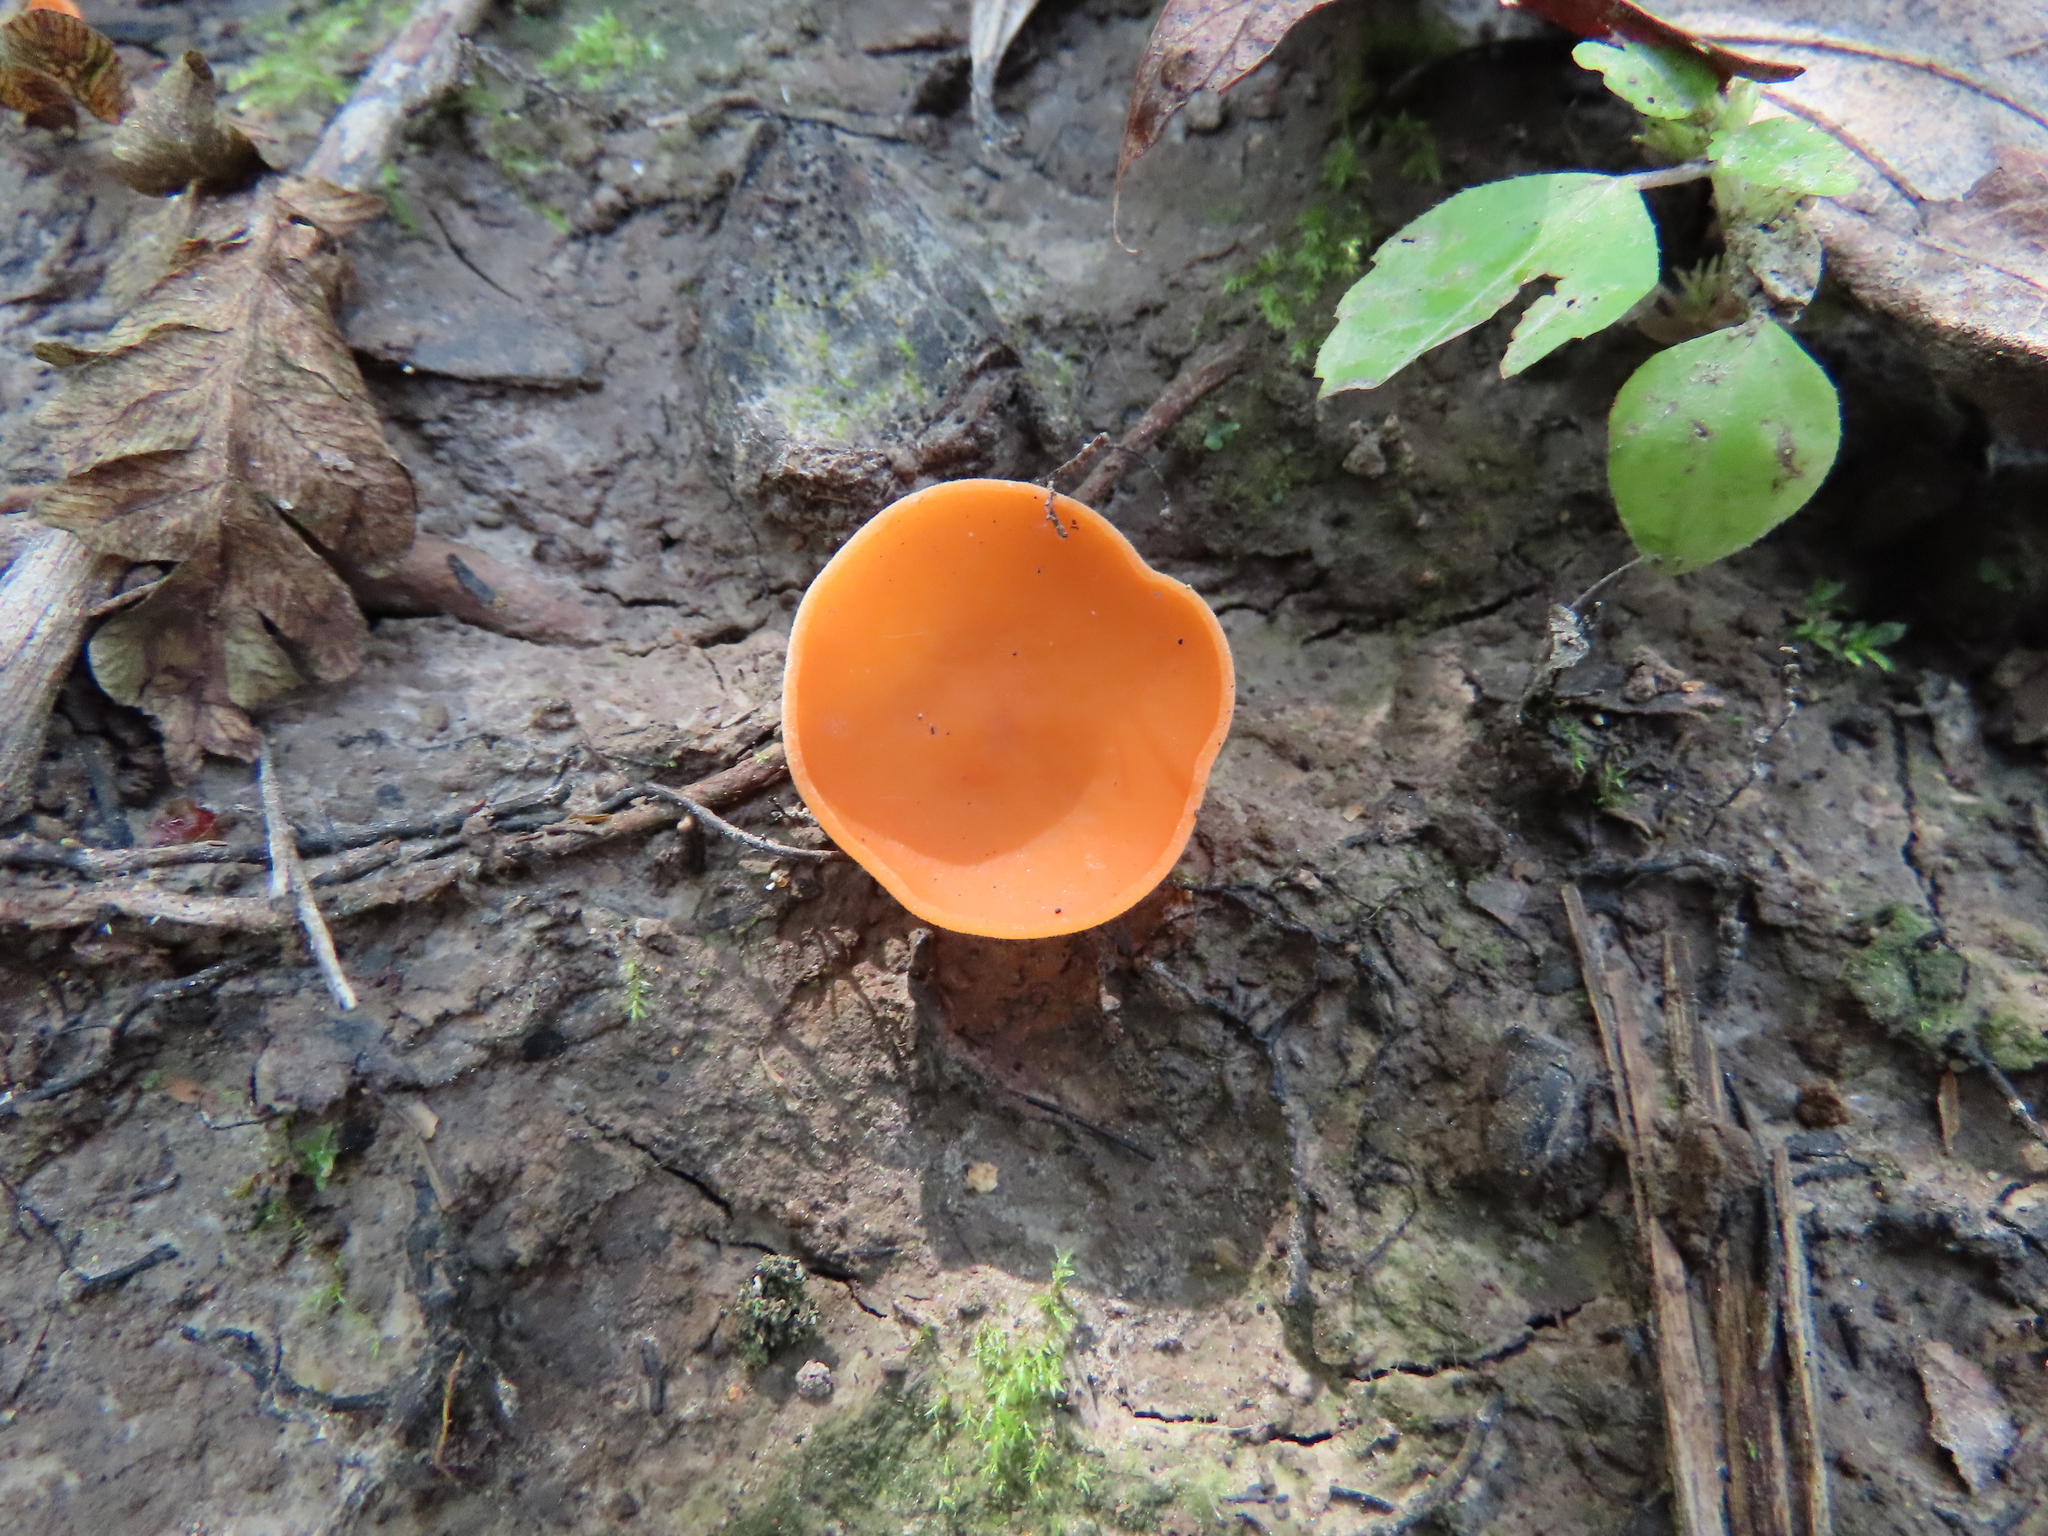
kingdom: Fungi
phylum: Ascomycota
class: Pezizomycetes
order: Pezizales
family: Pyronemataceae
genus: Aleuria
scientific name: Aleuria aurantia
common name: Orange peel fungus
